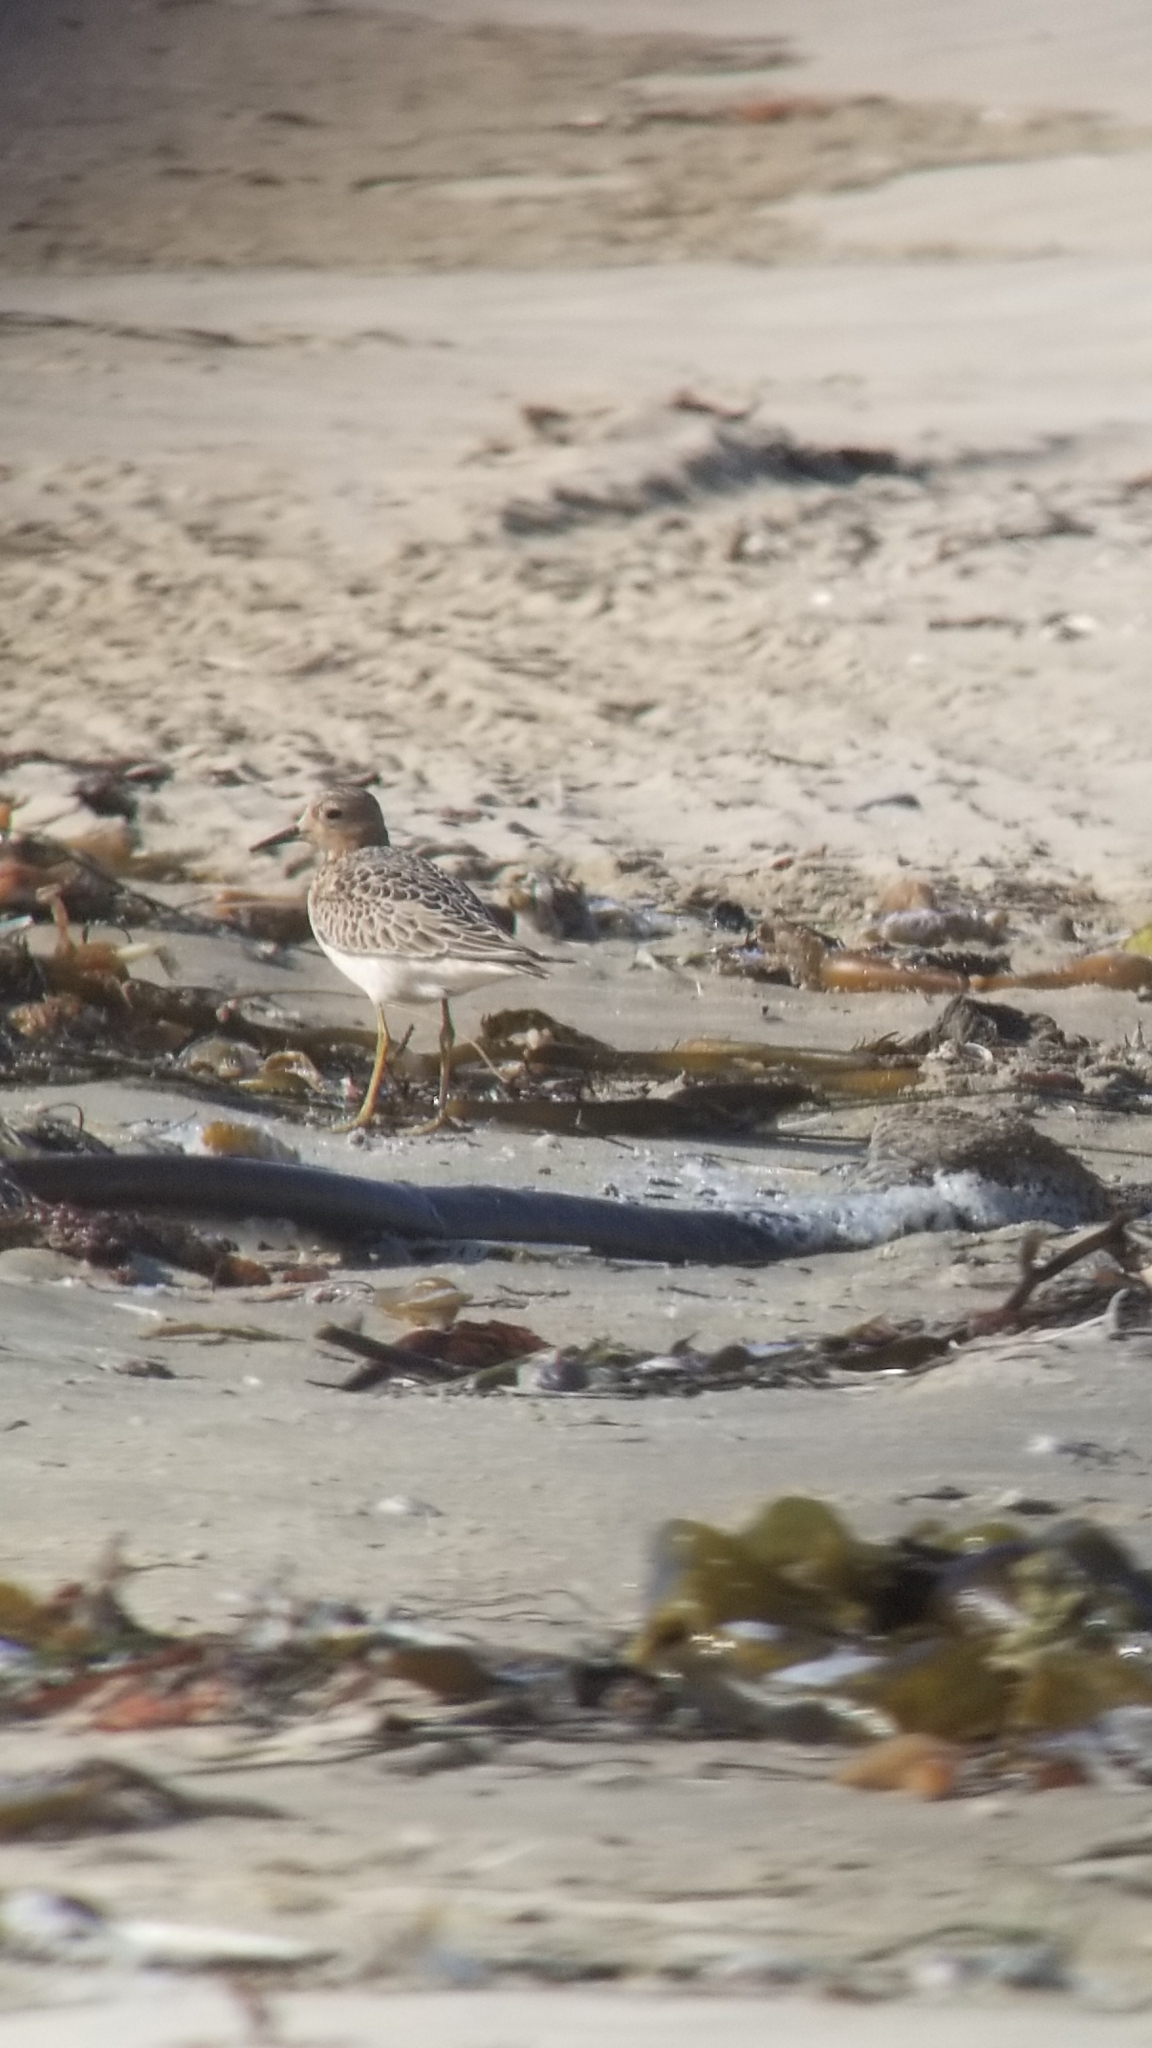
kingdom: Animalia
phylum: Chordata
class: Aves
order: Charadriiformes
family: Scolopacidae
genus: Calidris
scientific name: Calidris subruficollis
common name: Buff-breasted sandpiper
